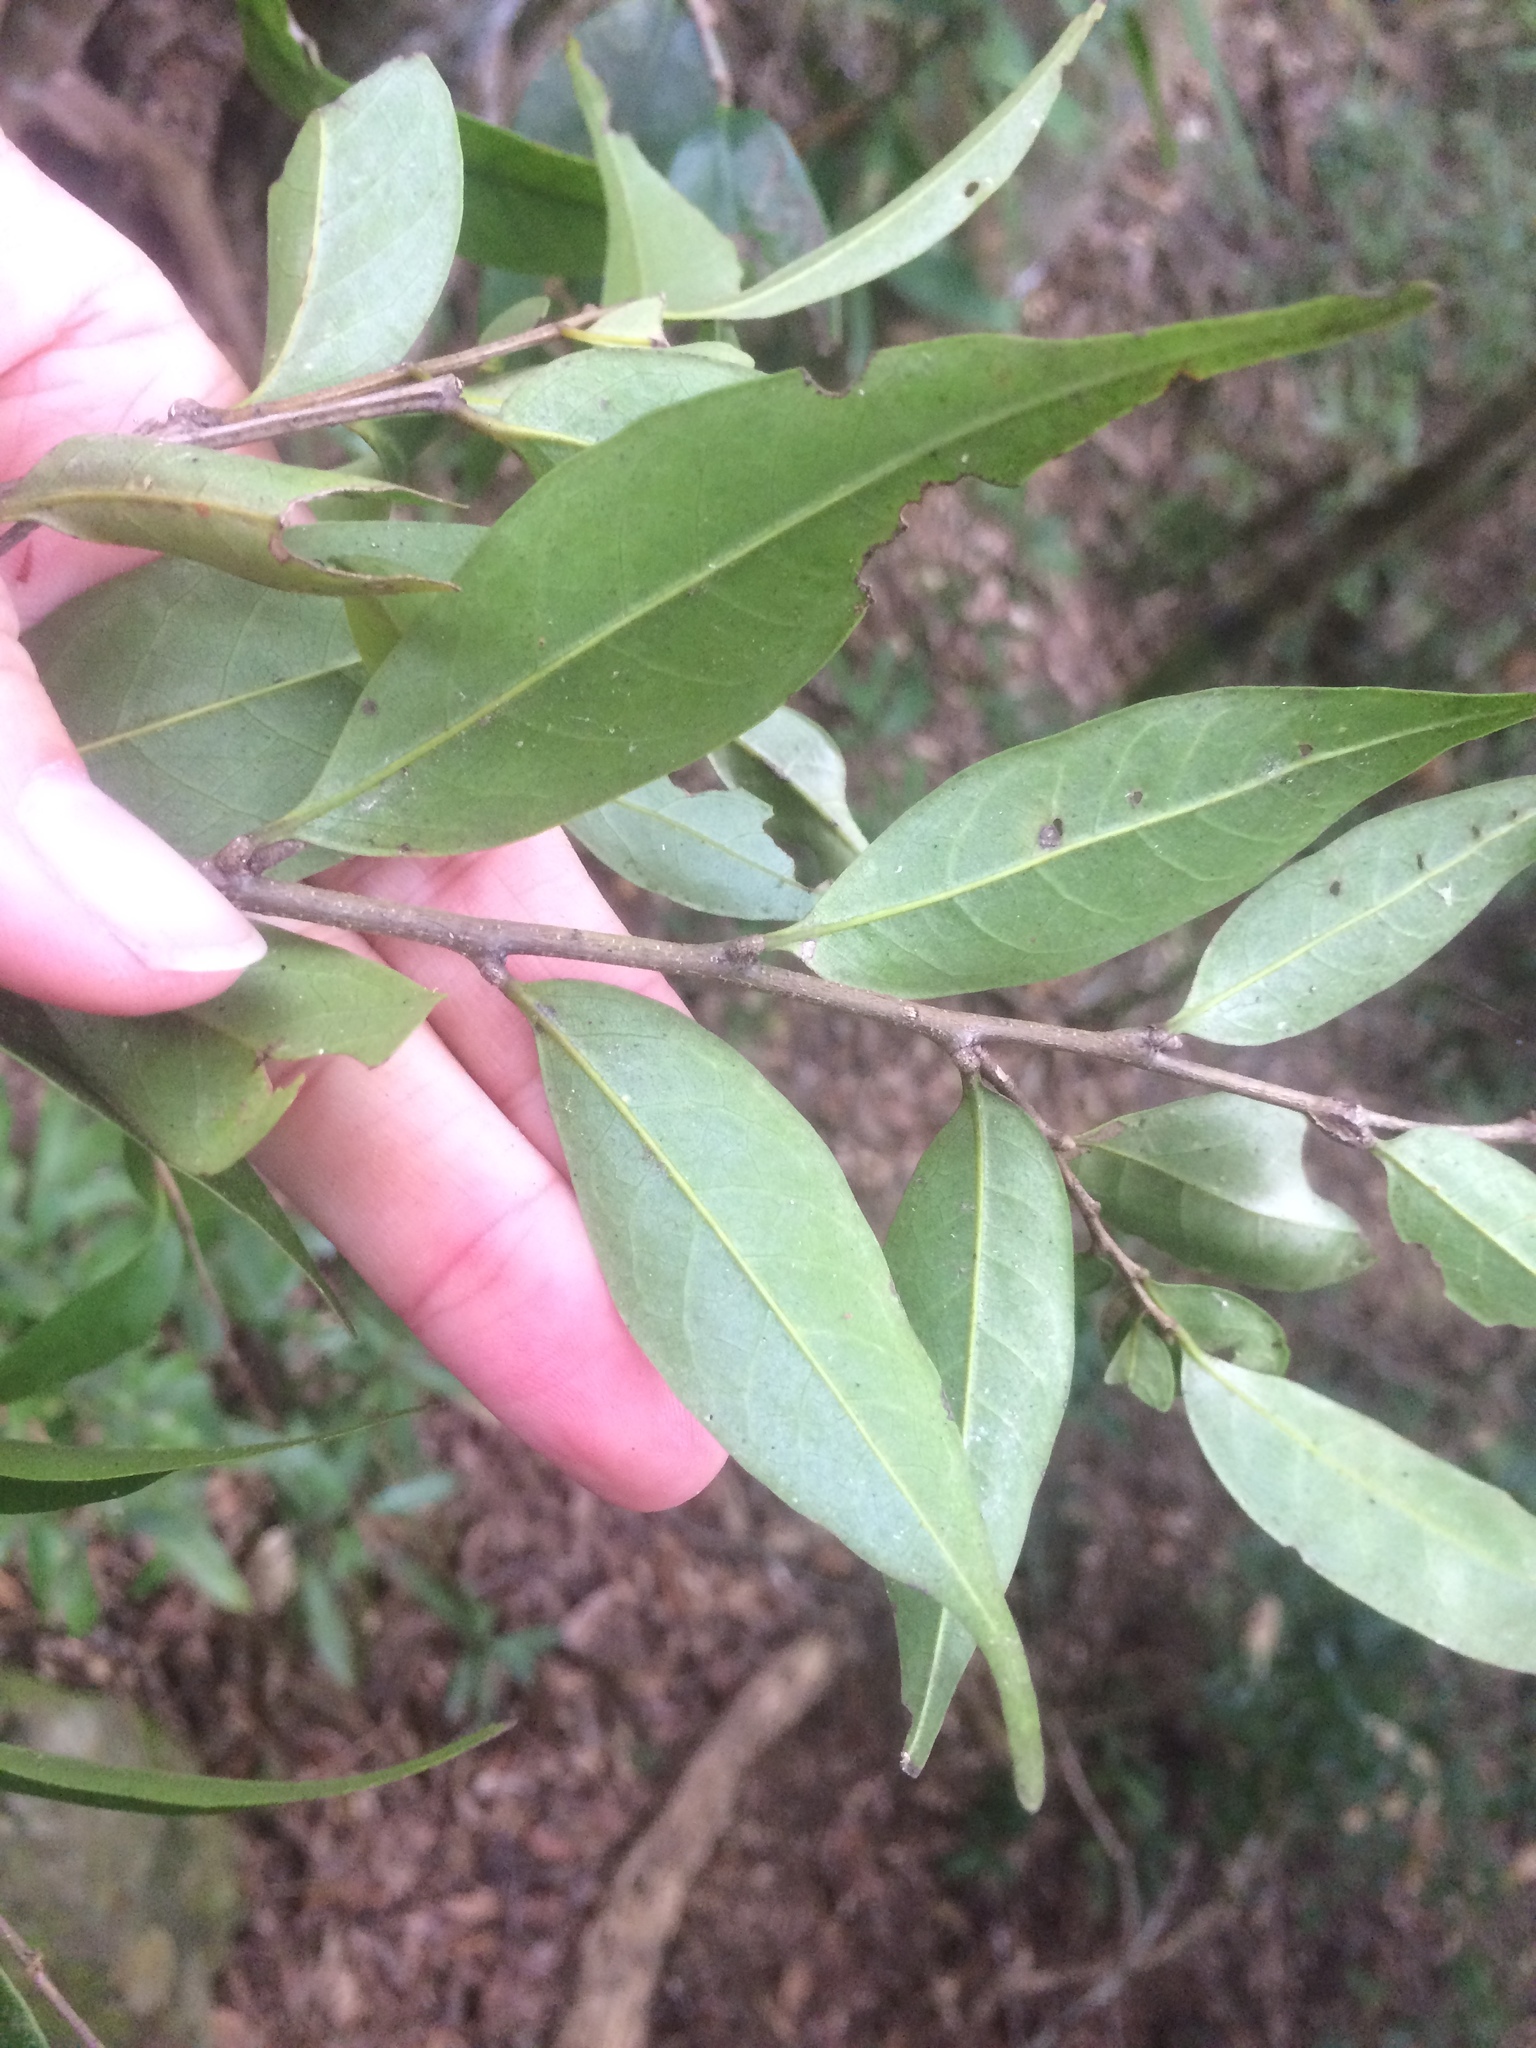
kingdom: Plantae
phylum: Tracheophyta
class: Magnoliopsida
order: Fagales
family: Fagaceae
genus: Lithocarpus
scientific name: Lithocarpus uraianus
